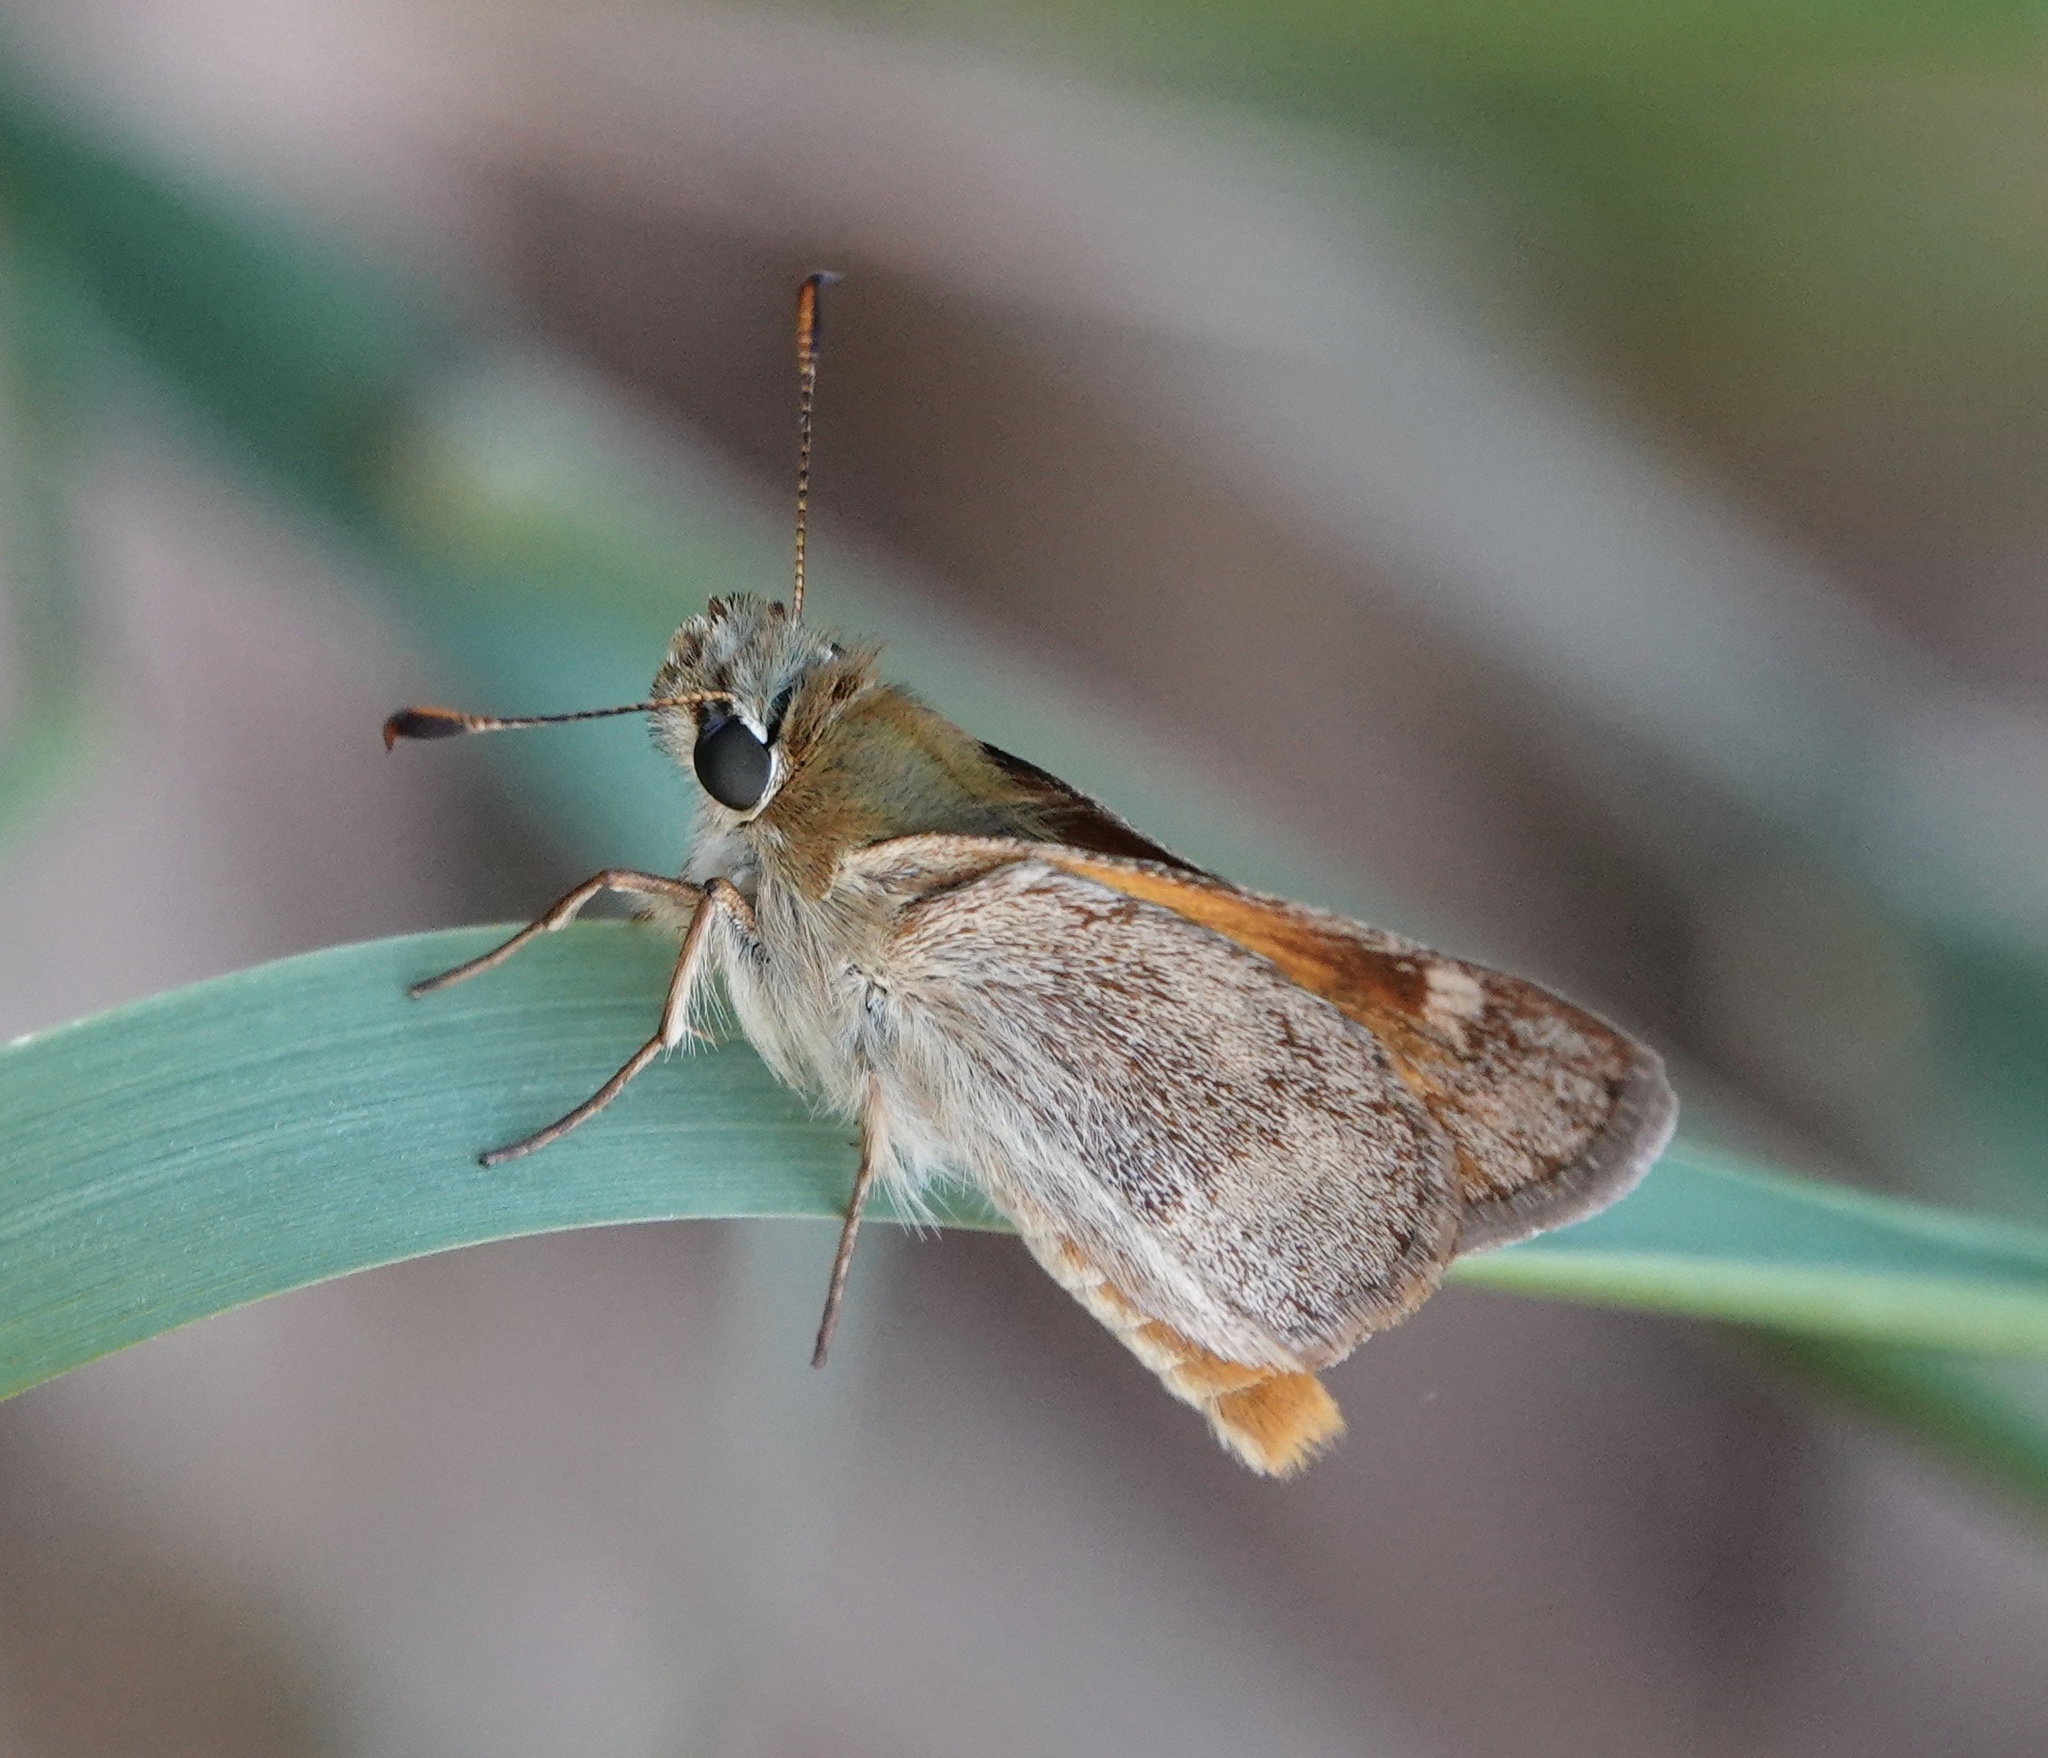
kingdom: Animalia
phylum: Arthropoda
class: Insecta
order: Lepidoptera
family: Hesperiidae
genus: Ochlodes
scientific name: Ochlodes sylvanoides
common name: Woodland skipper
